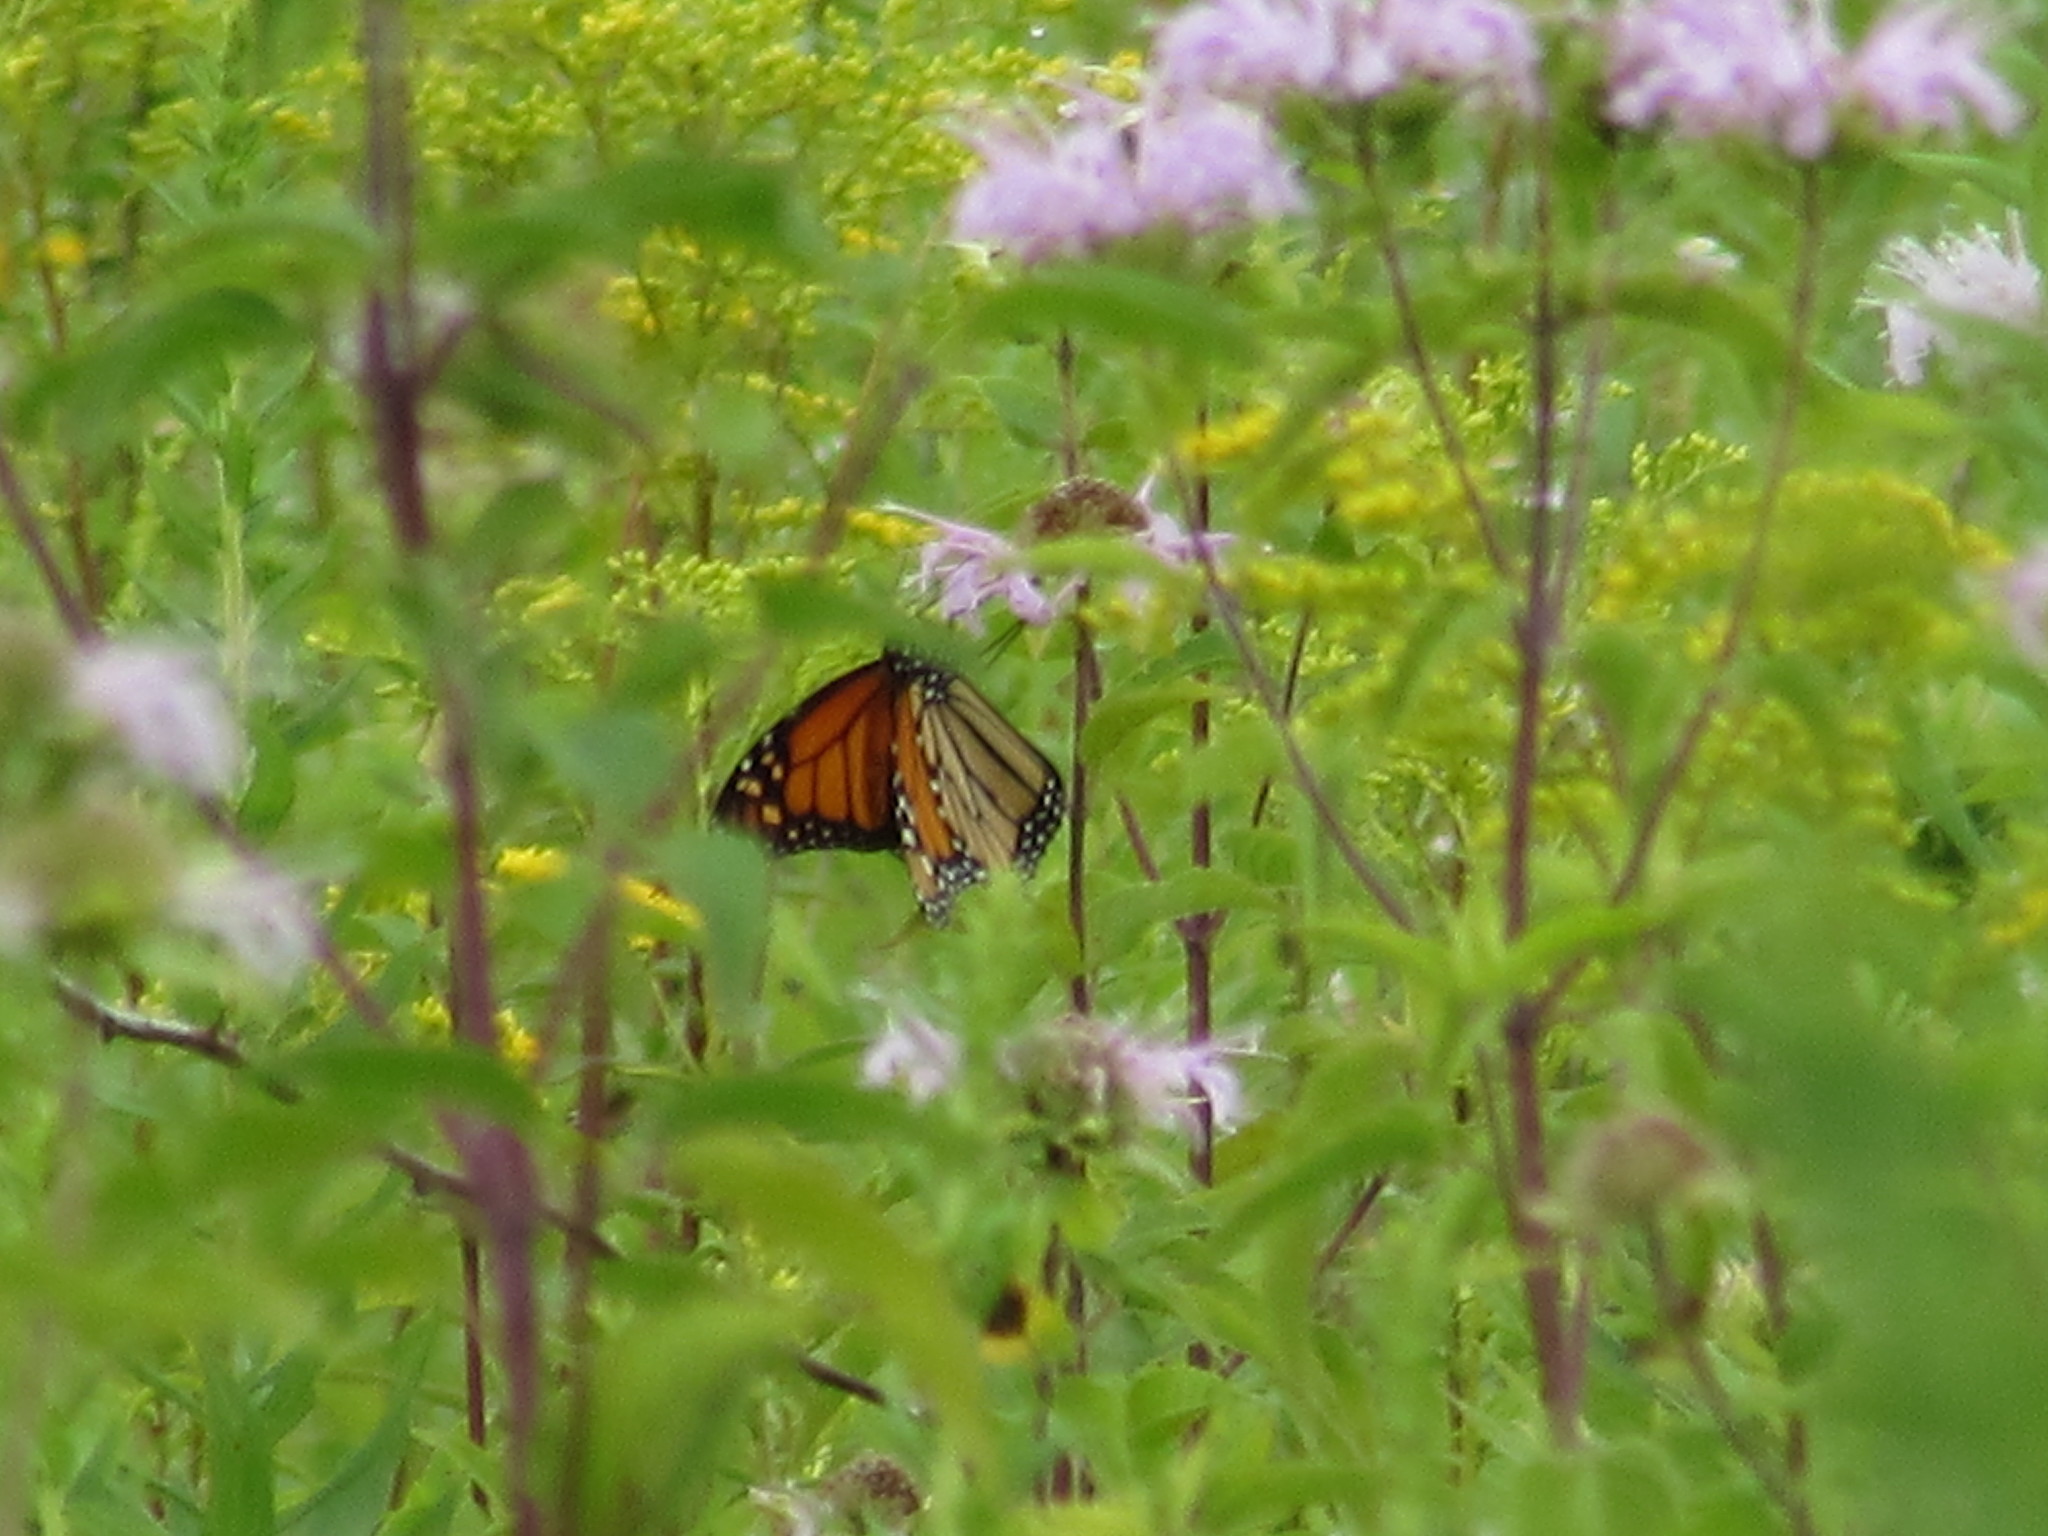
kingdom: Animalia
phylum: Arthropoda
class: Insecta
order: Lepidoptera
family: Nymphalidae
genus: Danaus
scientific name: Danaus plexippus
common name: Monarch
